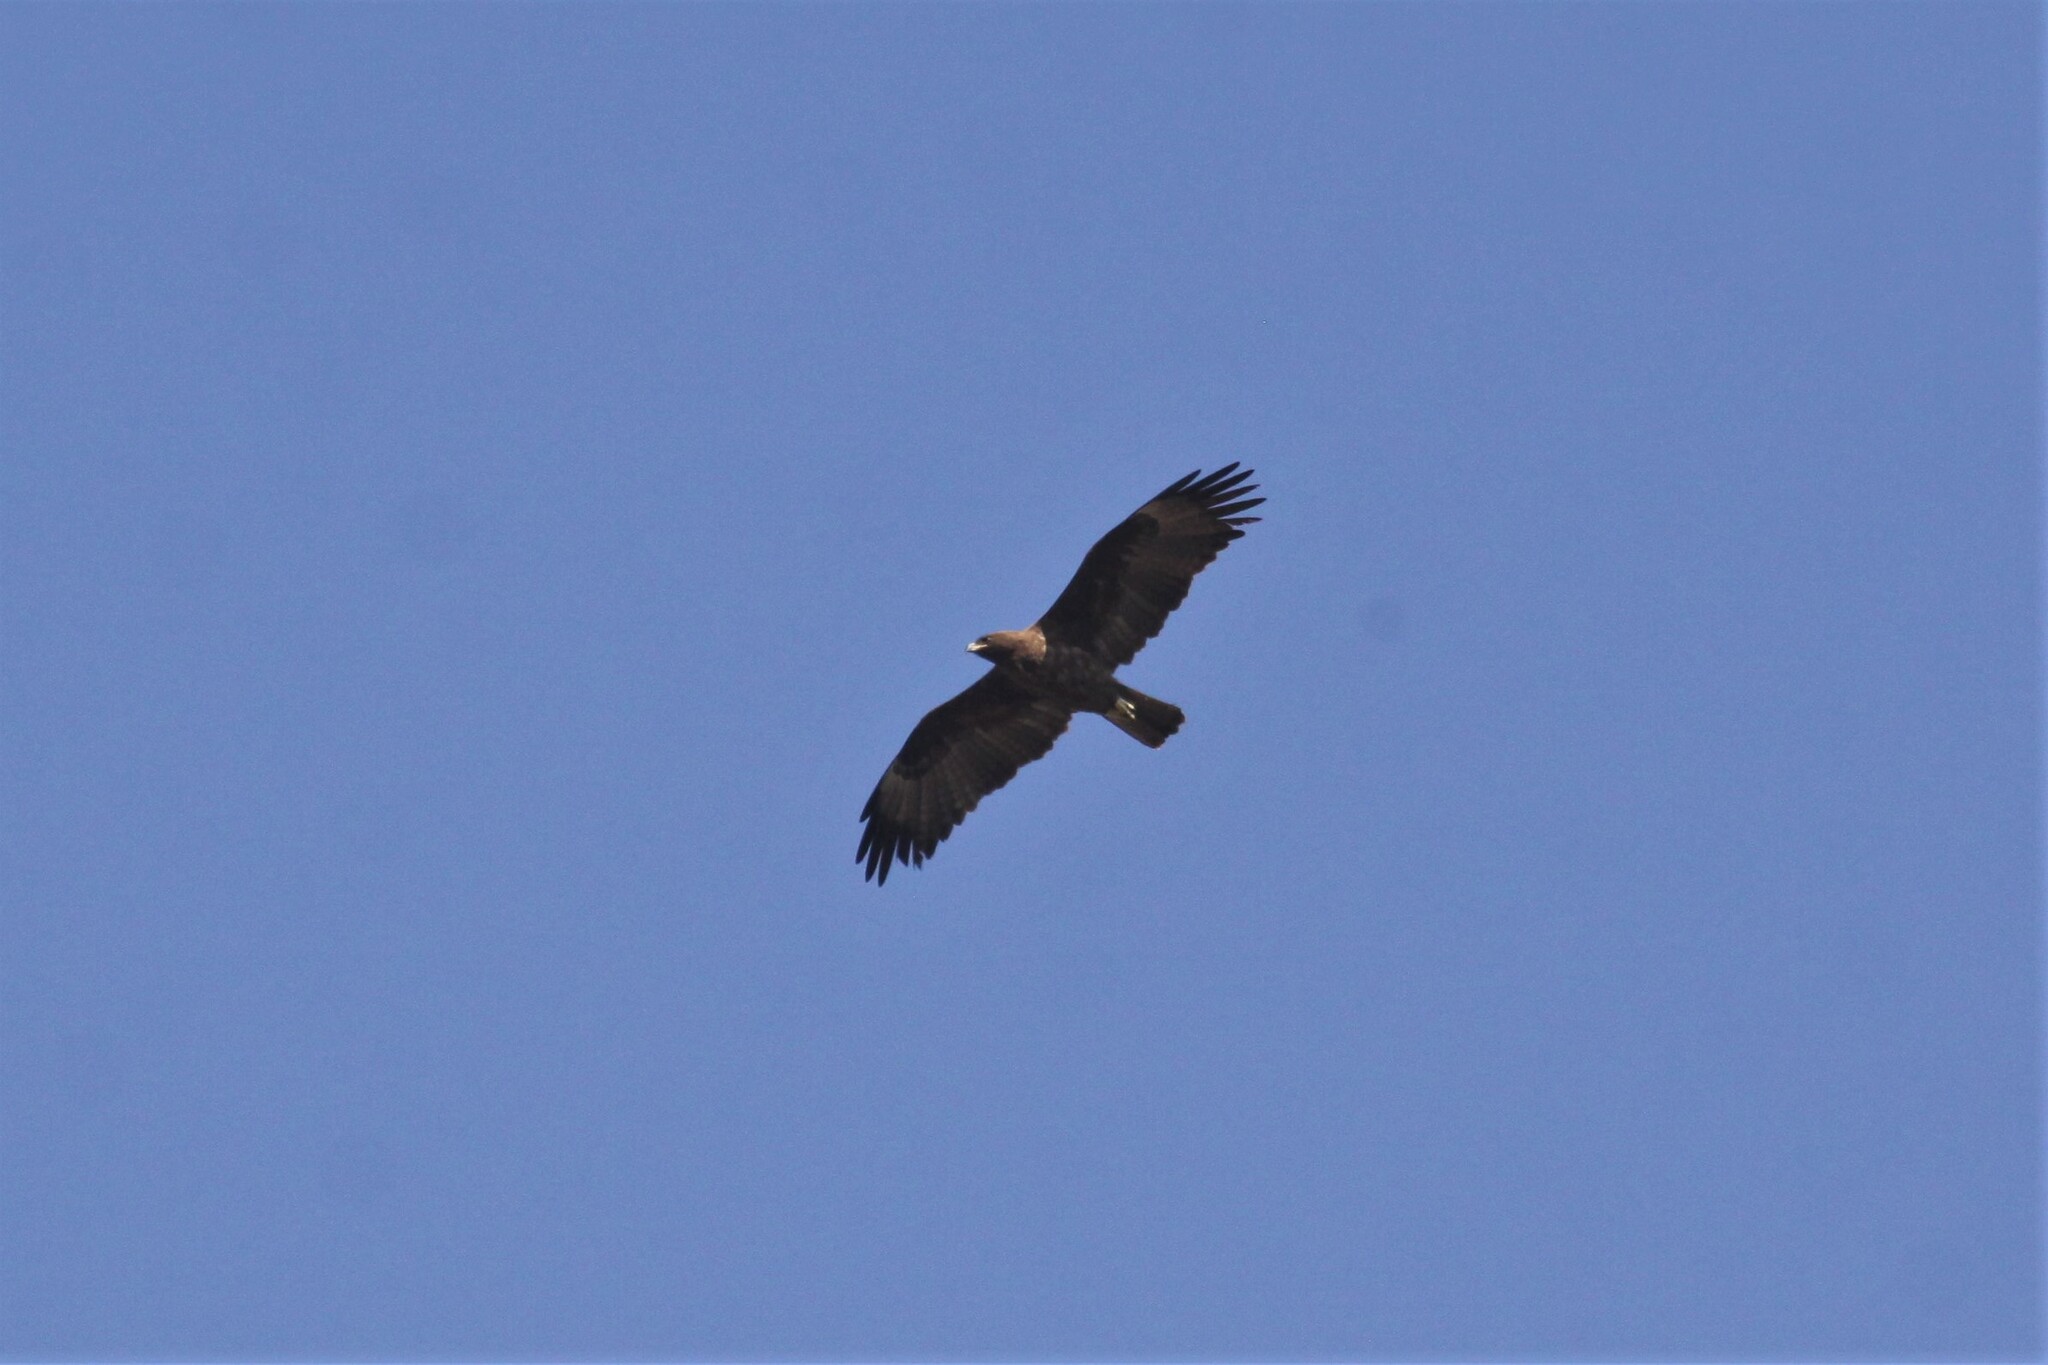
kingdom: Animalia
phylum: Chordata
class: Aves
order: Accipitriformes
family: Accipitridae
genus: Hieraaetus
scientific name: Hieraaetus wahlbergi
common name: Wahlberg's eagle
